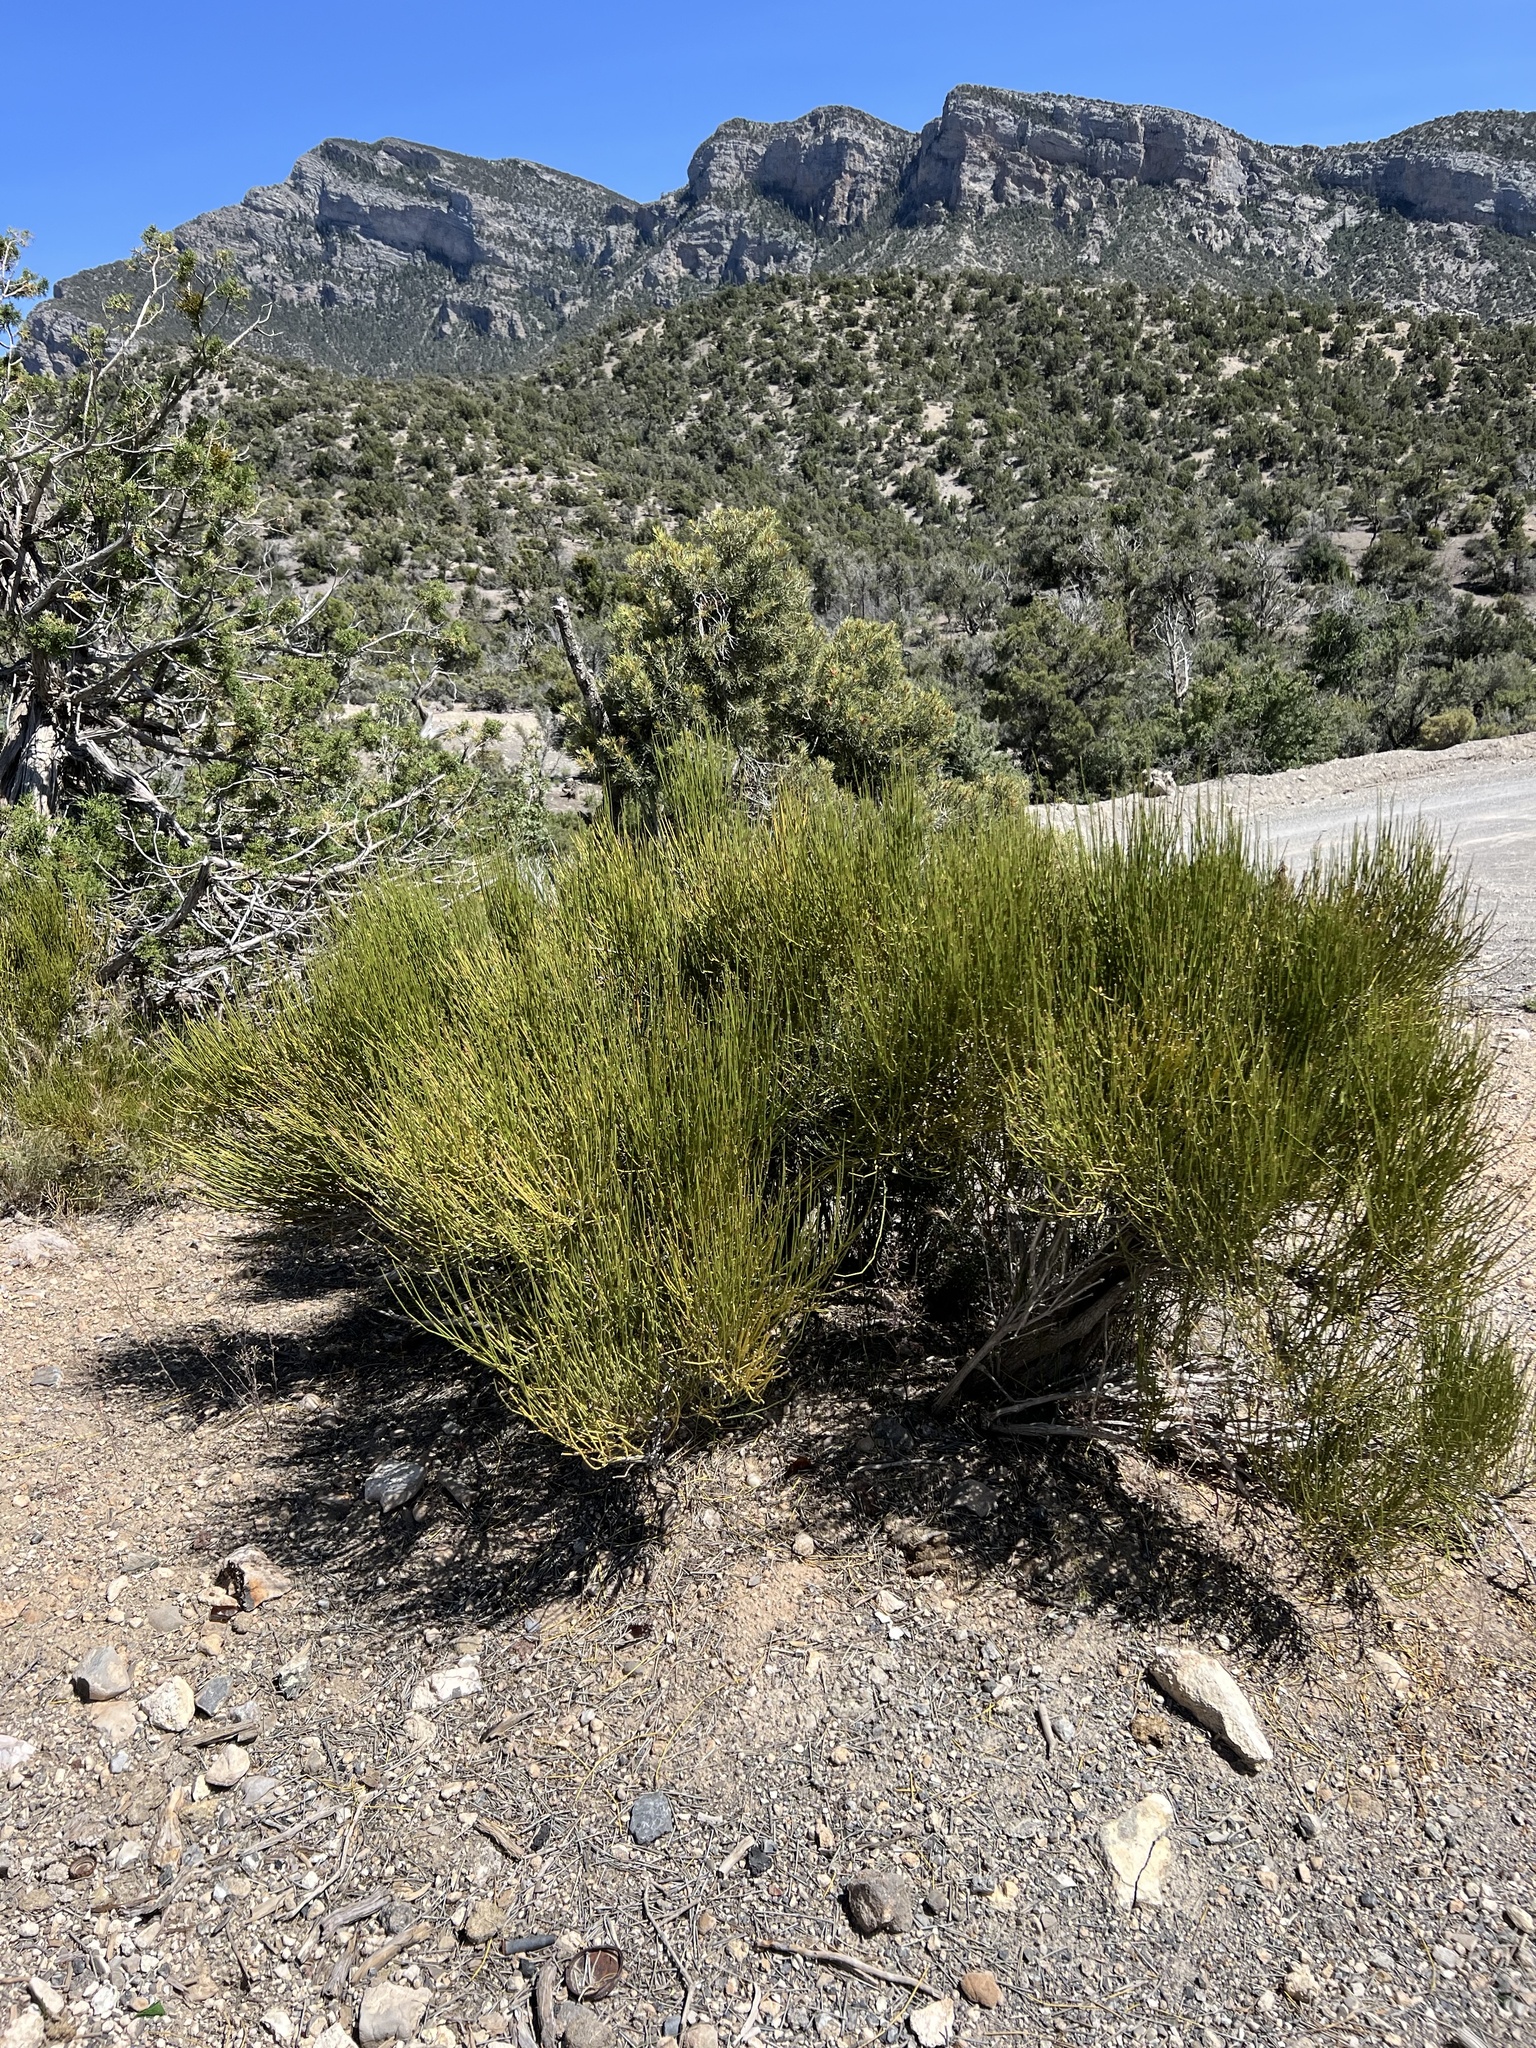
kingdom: Plantae
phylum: Tracheophyta
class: Gnetopsida
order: Ephedrales
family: Ephedraceae
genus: Ephedra
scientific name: Ephedra viridis
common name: Green ephedra
